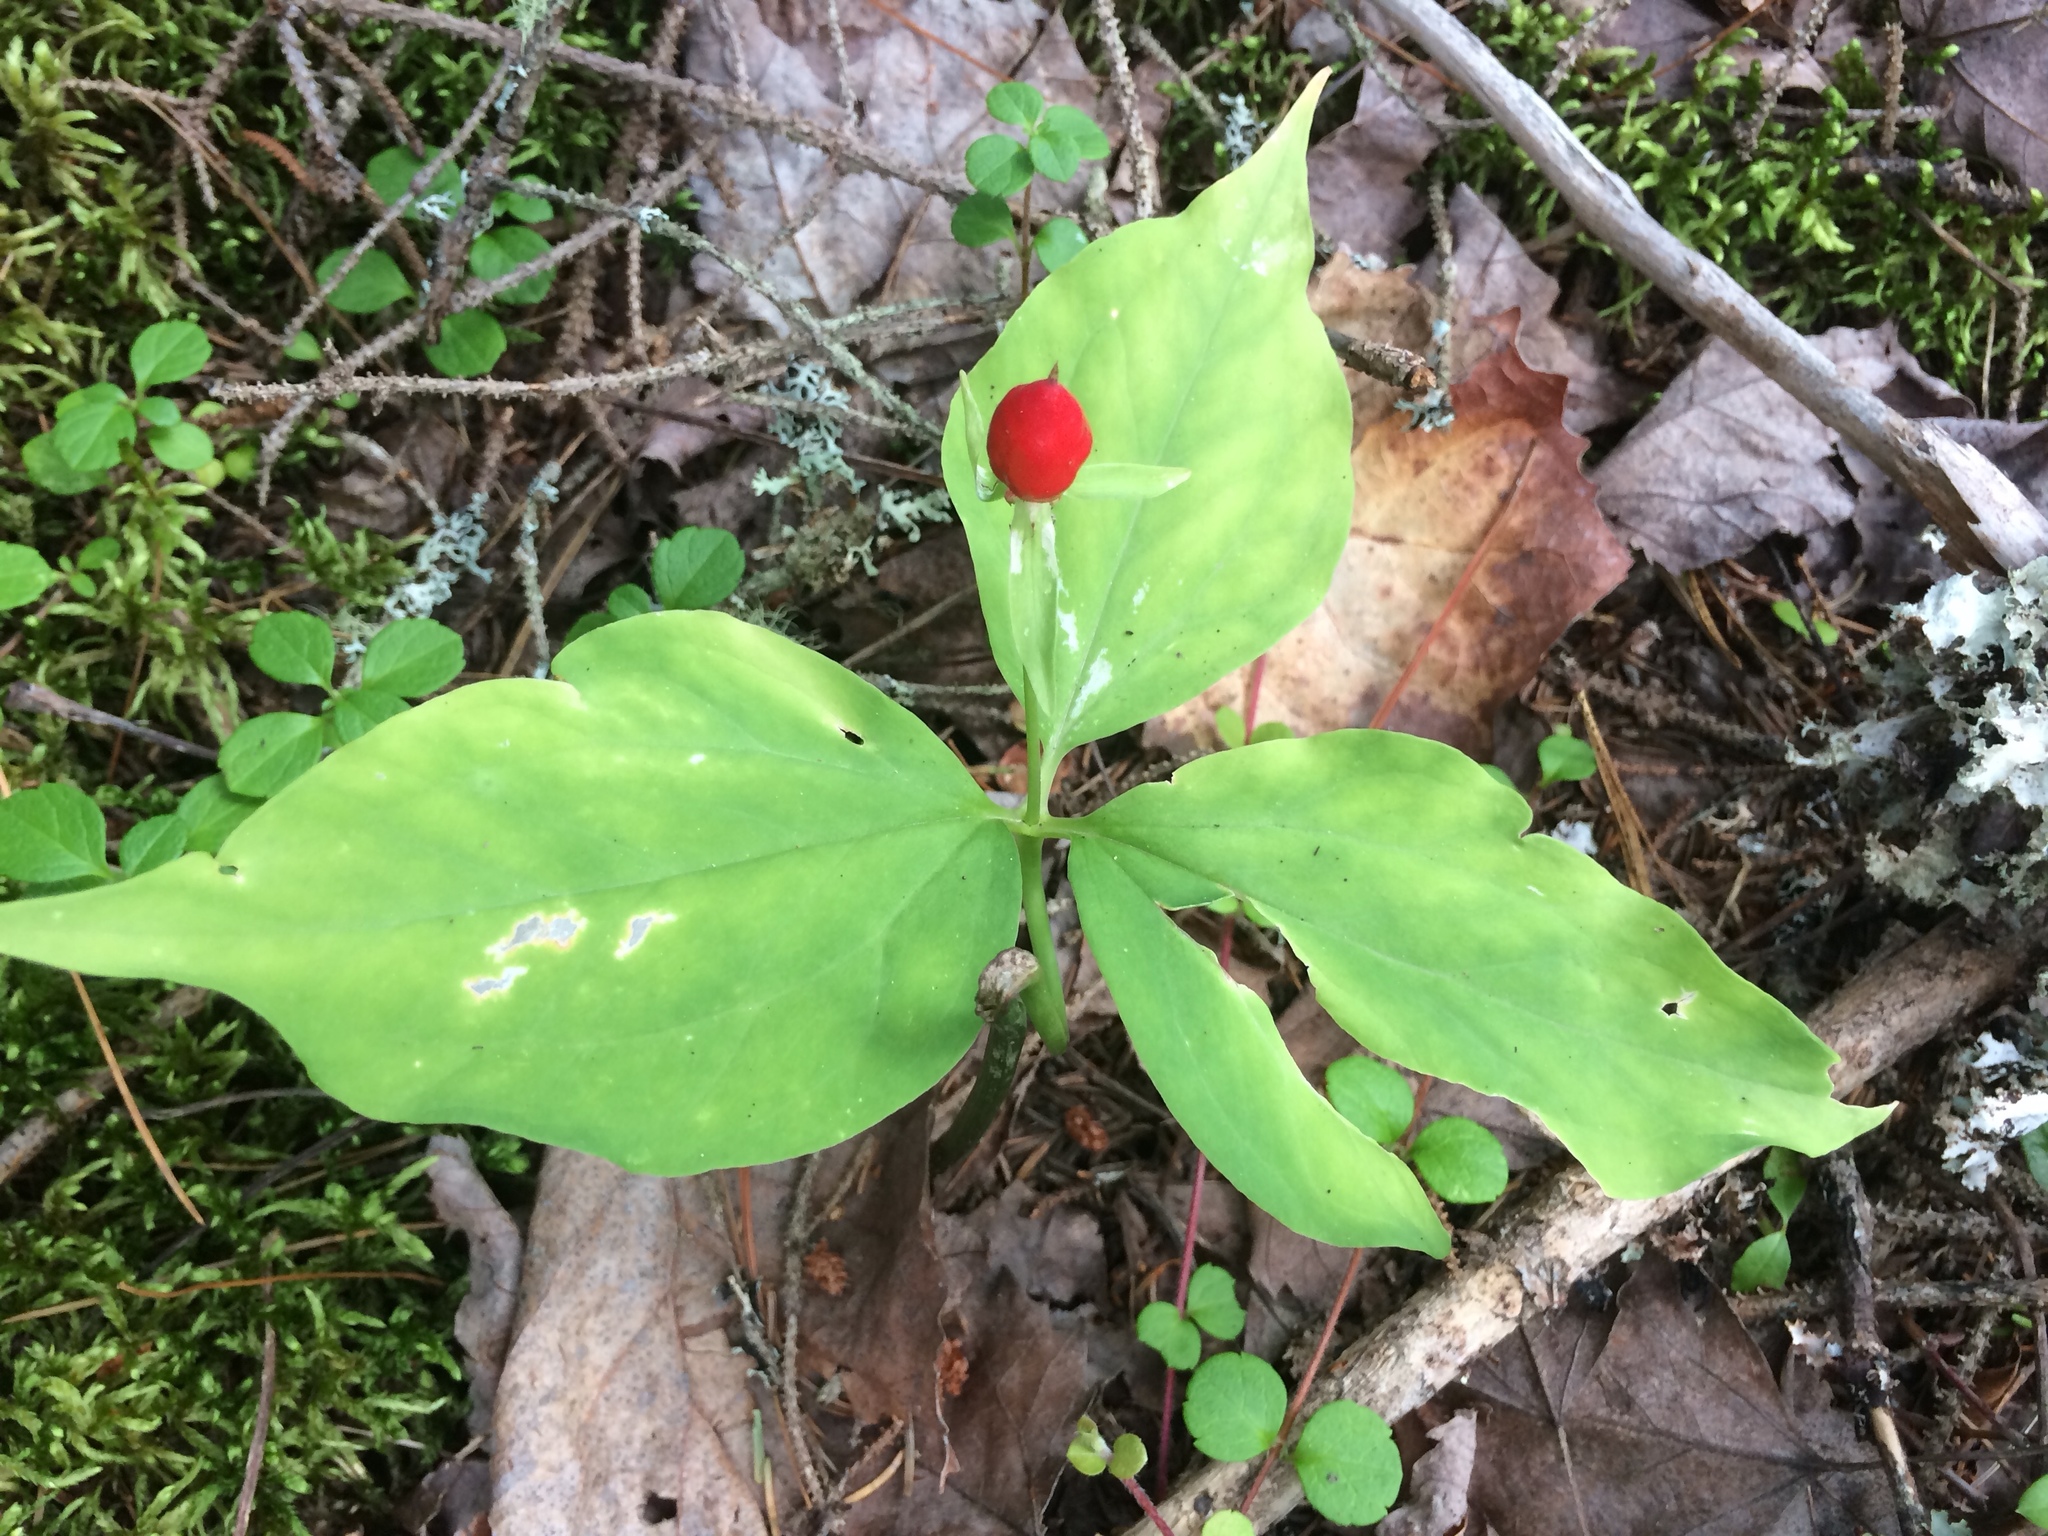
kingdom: Plantae
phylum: Tracheophyta
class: Liliopsida
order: Liliales
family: Melanthiaceae
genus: Trillium
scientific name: Trillium undulatum
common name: Paint trillium
